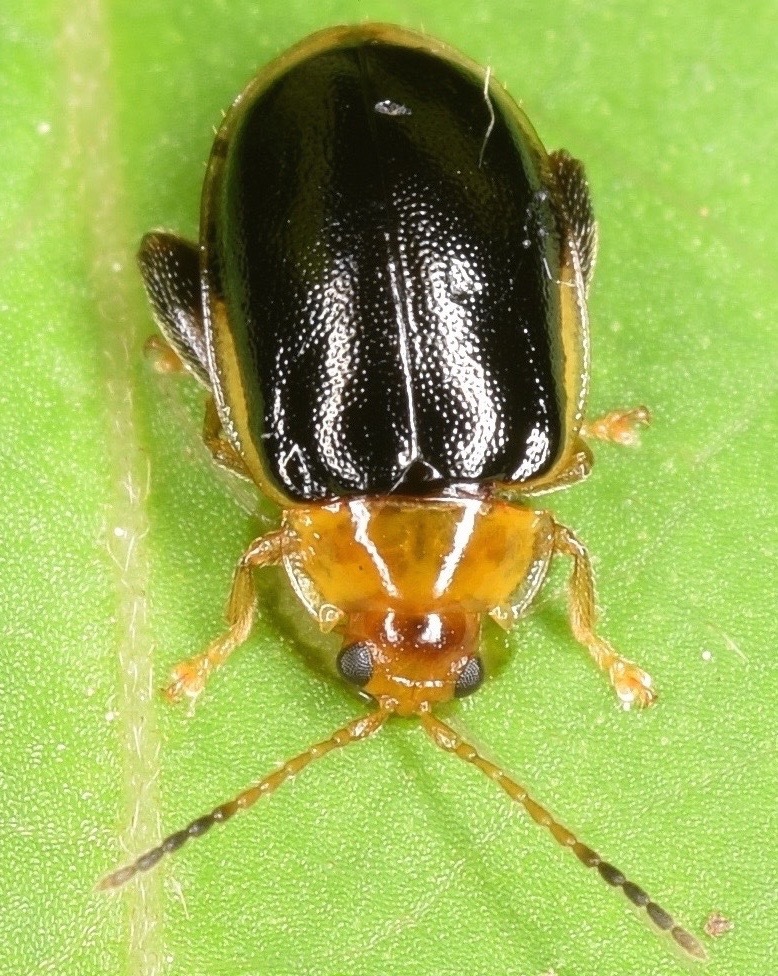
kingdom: Animalia
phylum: Arthropoda
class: Insecta
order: Coleoptera
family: Chrysomelidae
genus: Capraita
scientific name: Capraita circumdata
